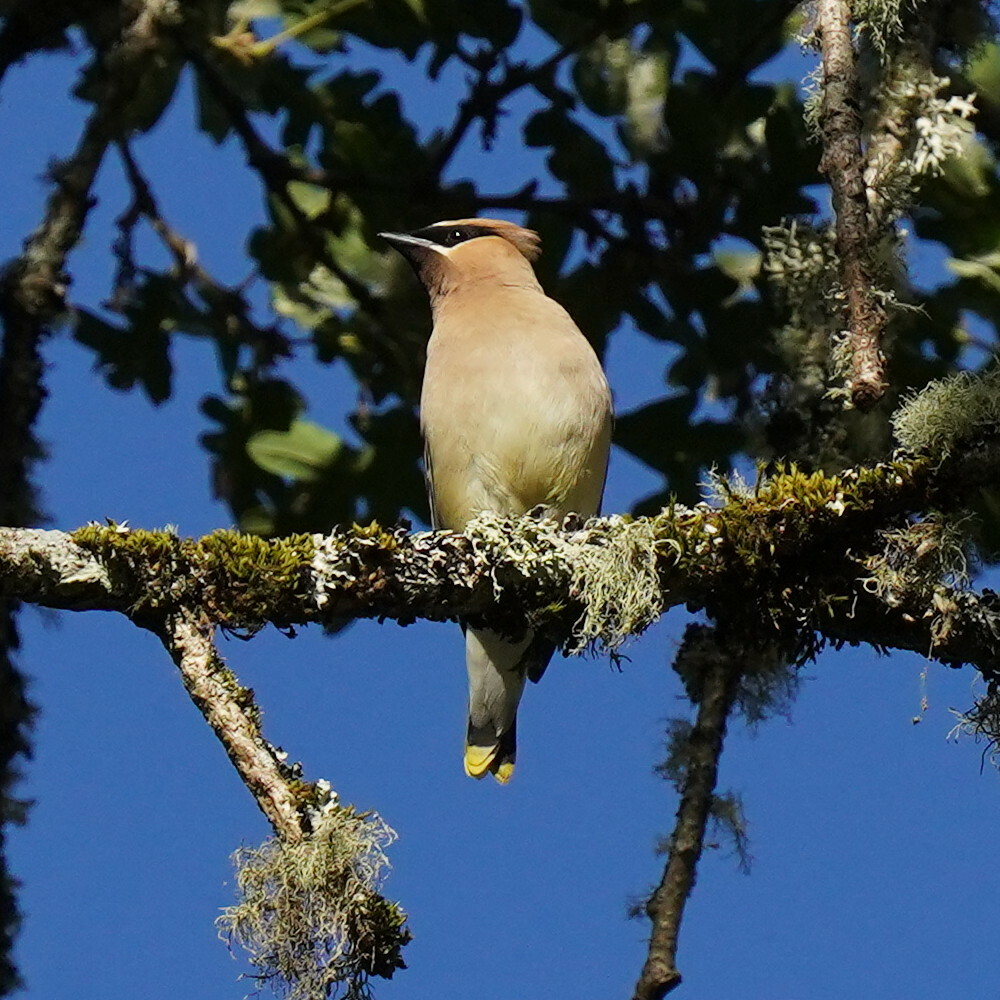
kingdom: Animalia
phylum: Chordata
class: Aves
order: Passeriformes
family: Bombycillidae
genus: Bombycilla
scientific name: Bombycilla cedrorum
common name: Cedar waxwing
